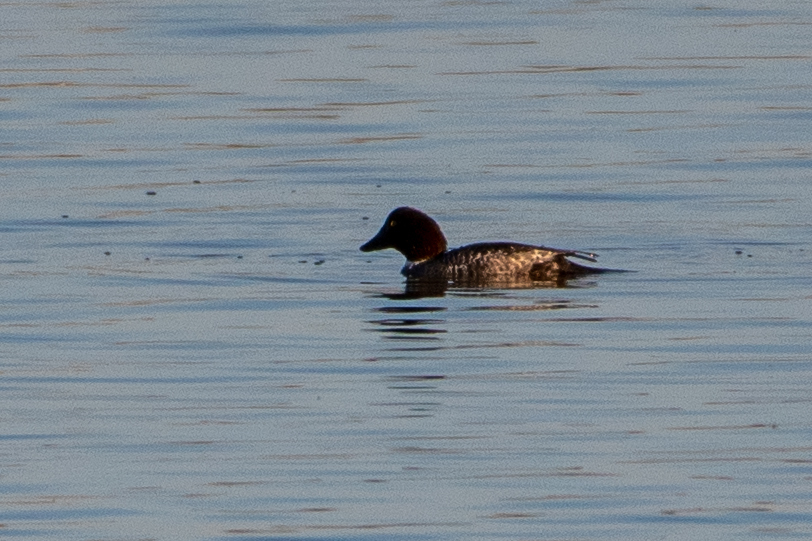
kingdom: Animalia
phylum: Chordata
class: Aves
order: Anseriformes
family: Anatidae
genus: Bucephala
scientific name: Bucephala clangula
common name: Common goldeneye
